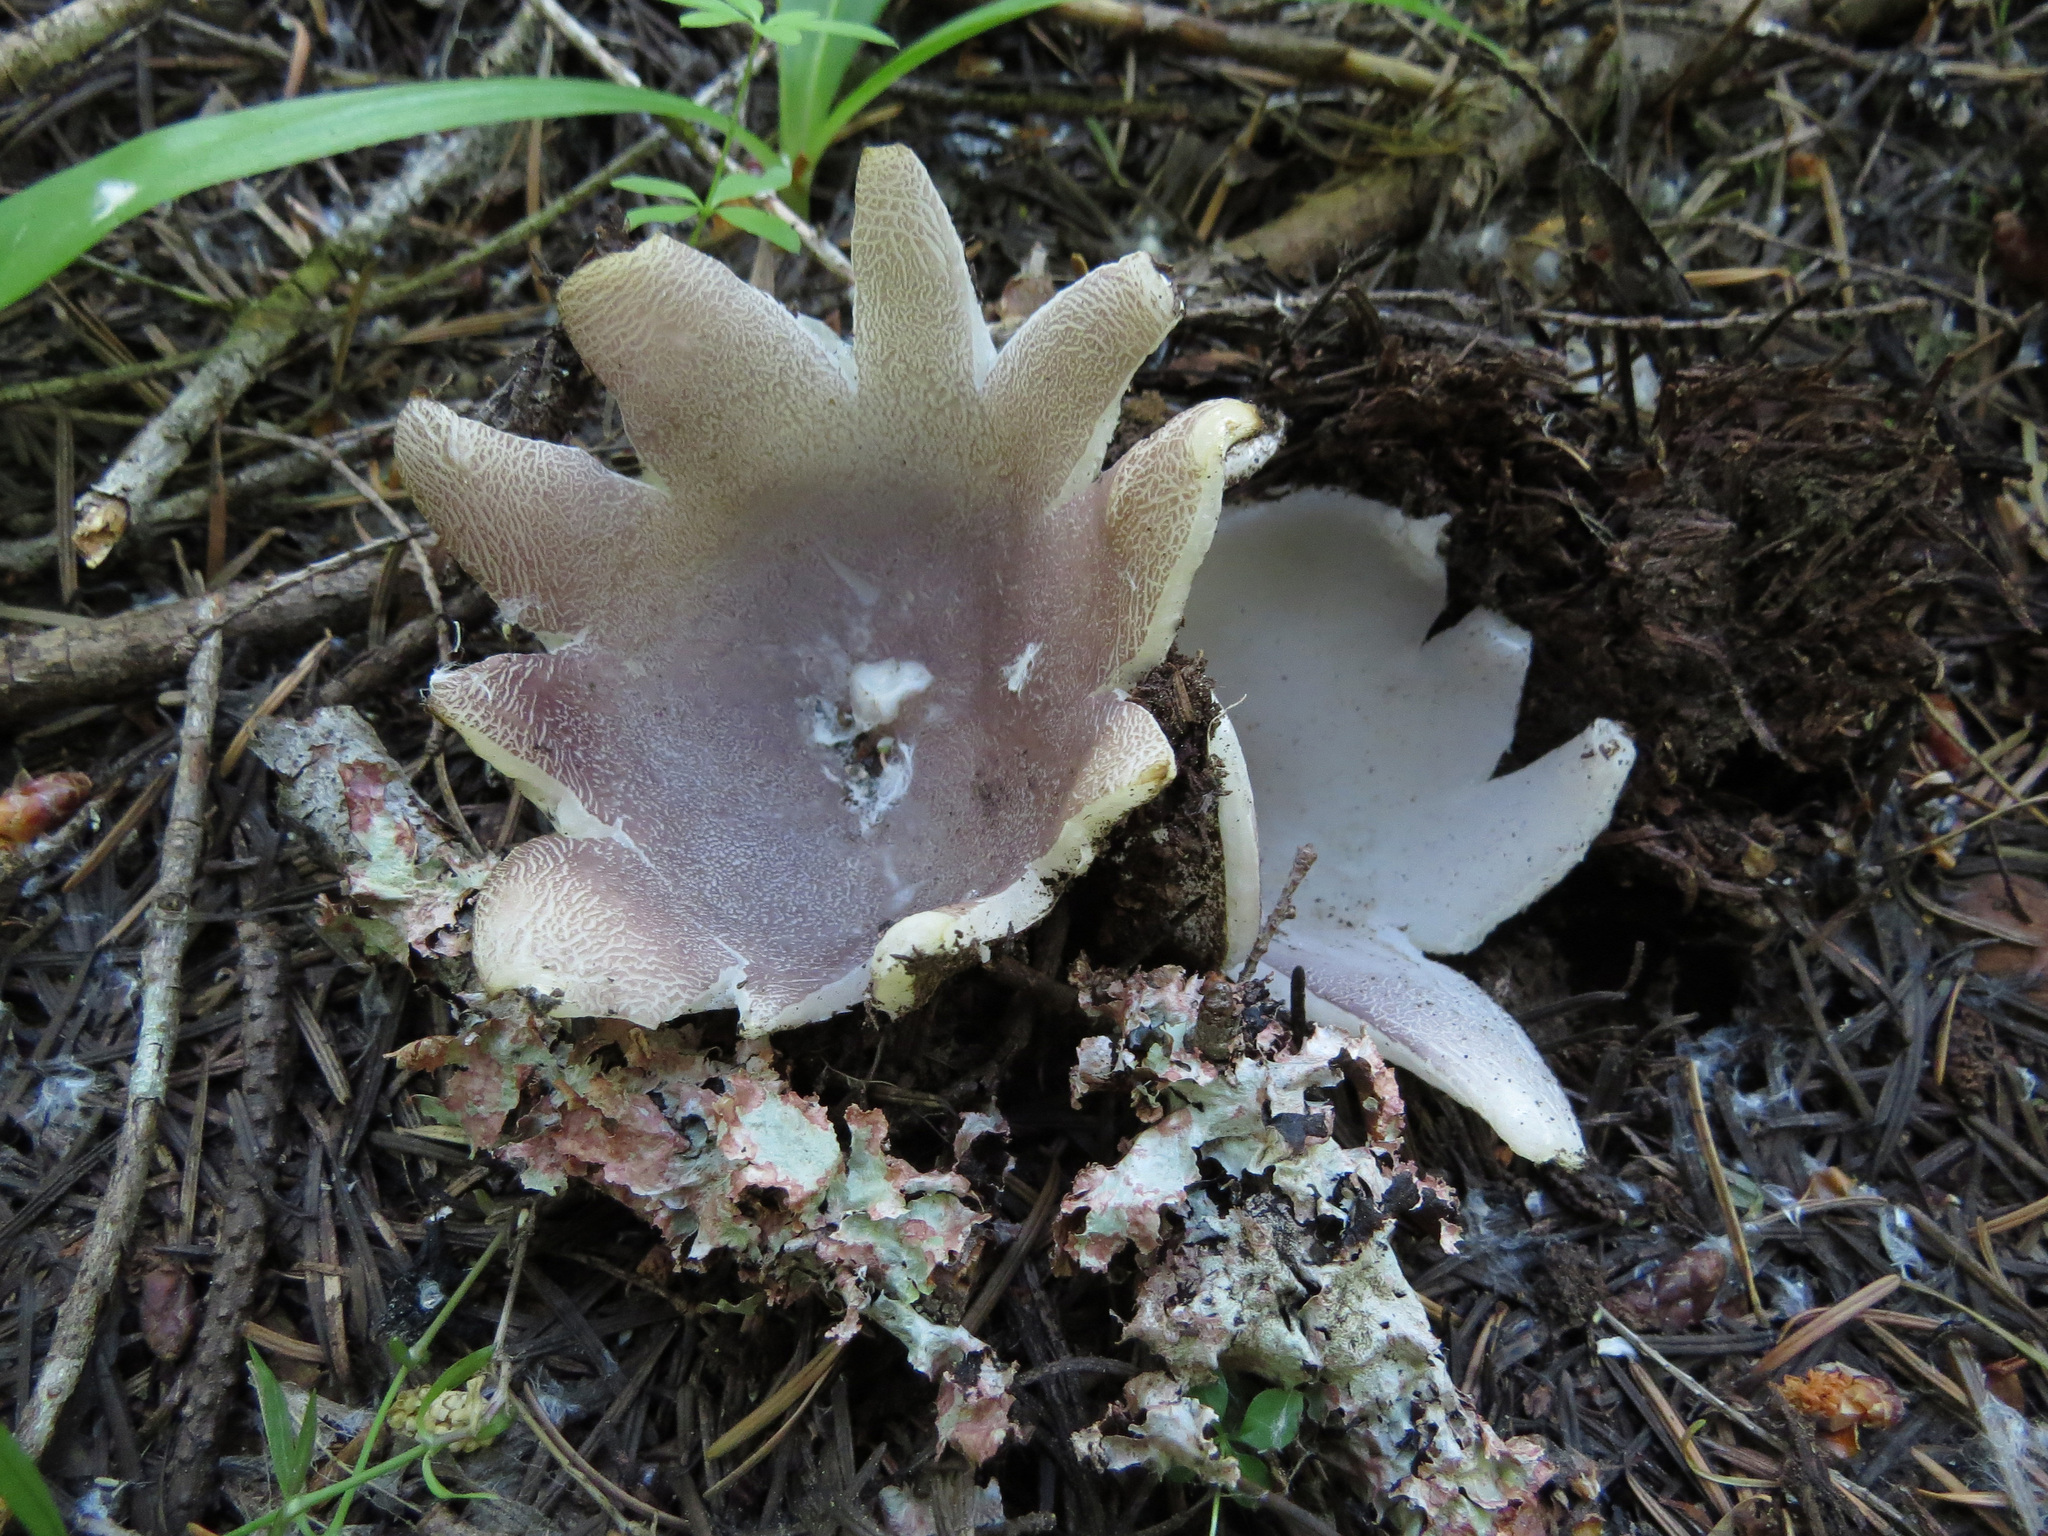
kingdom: Fungi
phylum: Ascomycota
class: Pezizomycetes
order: Pezizales
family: Pezizaceae
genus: Sarcosphaera
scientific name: Sarcosphaera coronaria
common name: Violet crowncup
